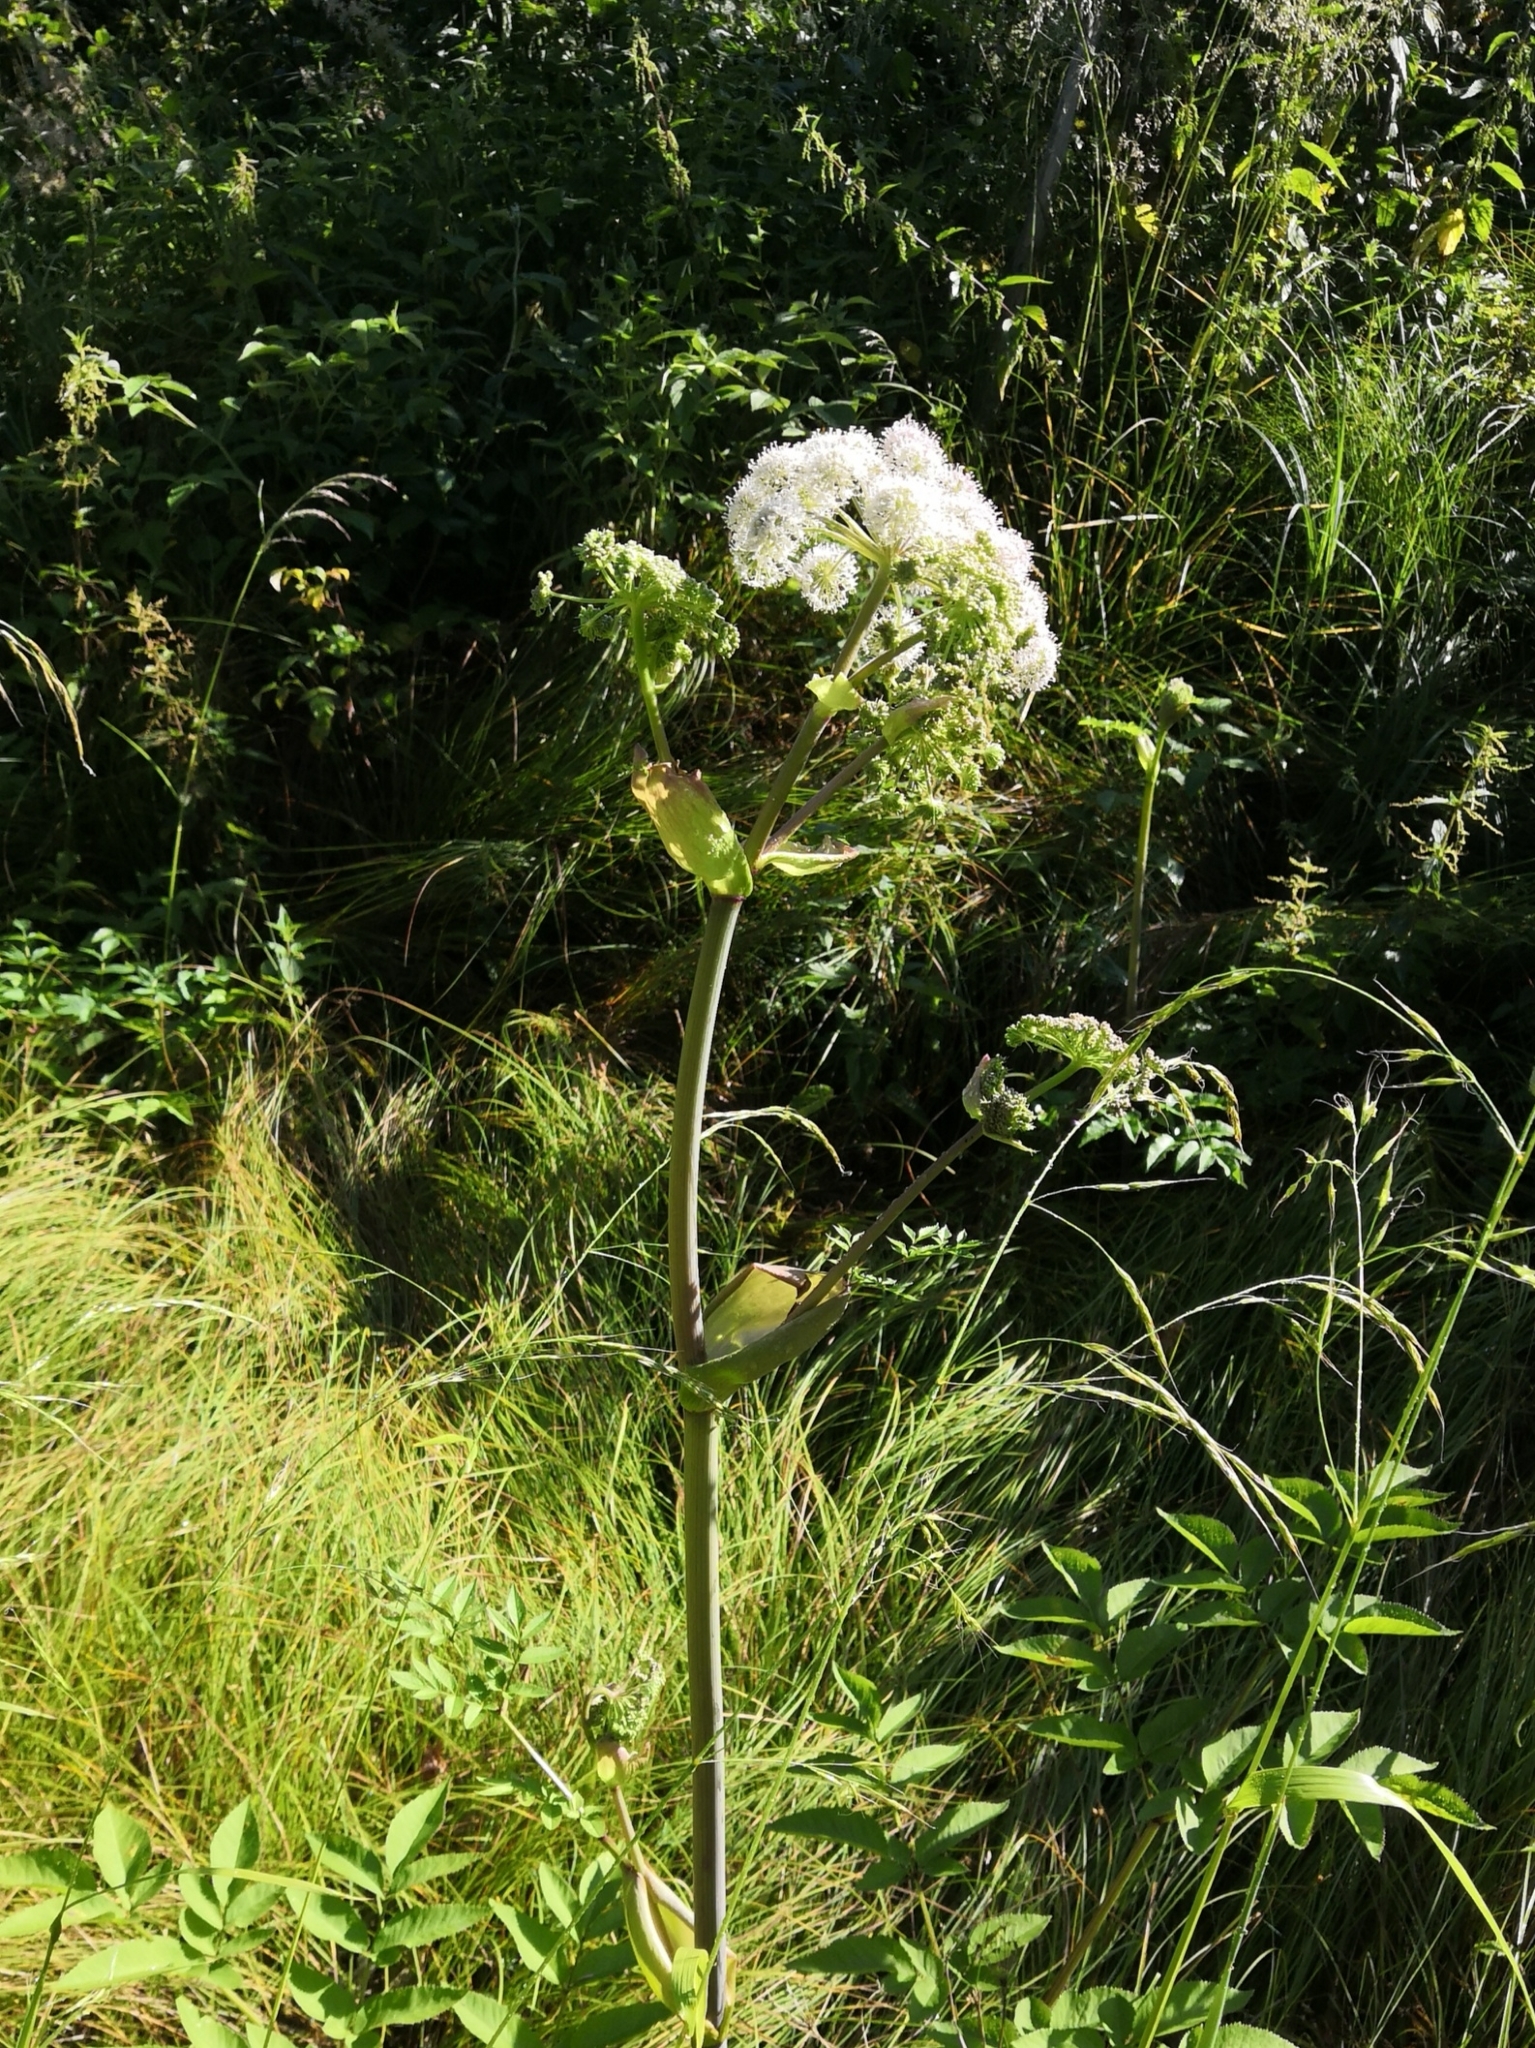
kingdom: Plantae
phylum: Tracheophyta
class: Magnoliopsida
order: Apiales
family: Apiaceae
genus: Angelica
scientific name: Angelica sylvestris
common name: Wild angelica
